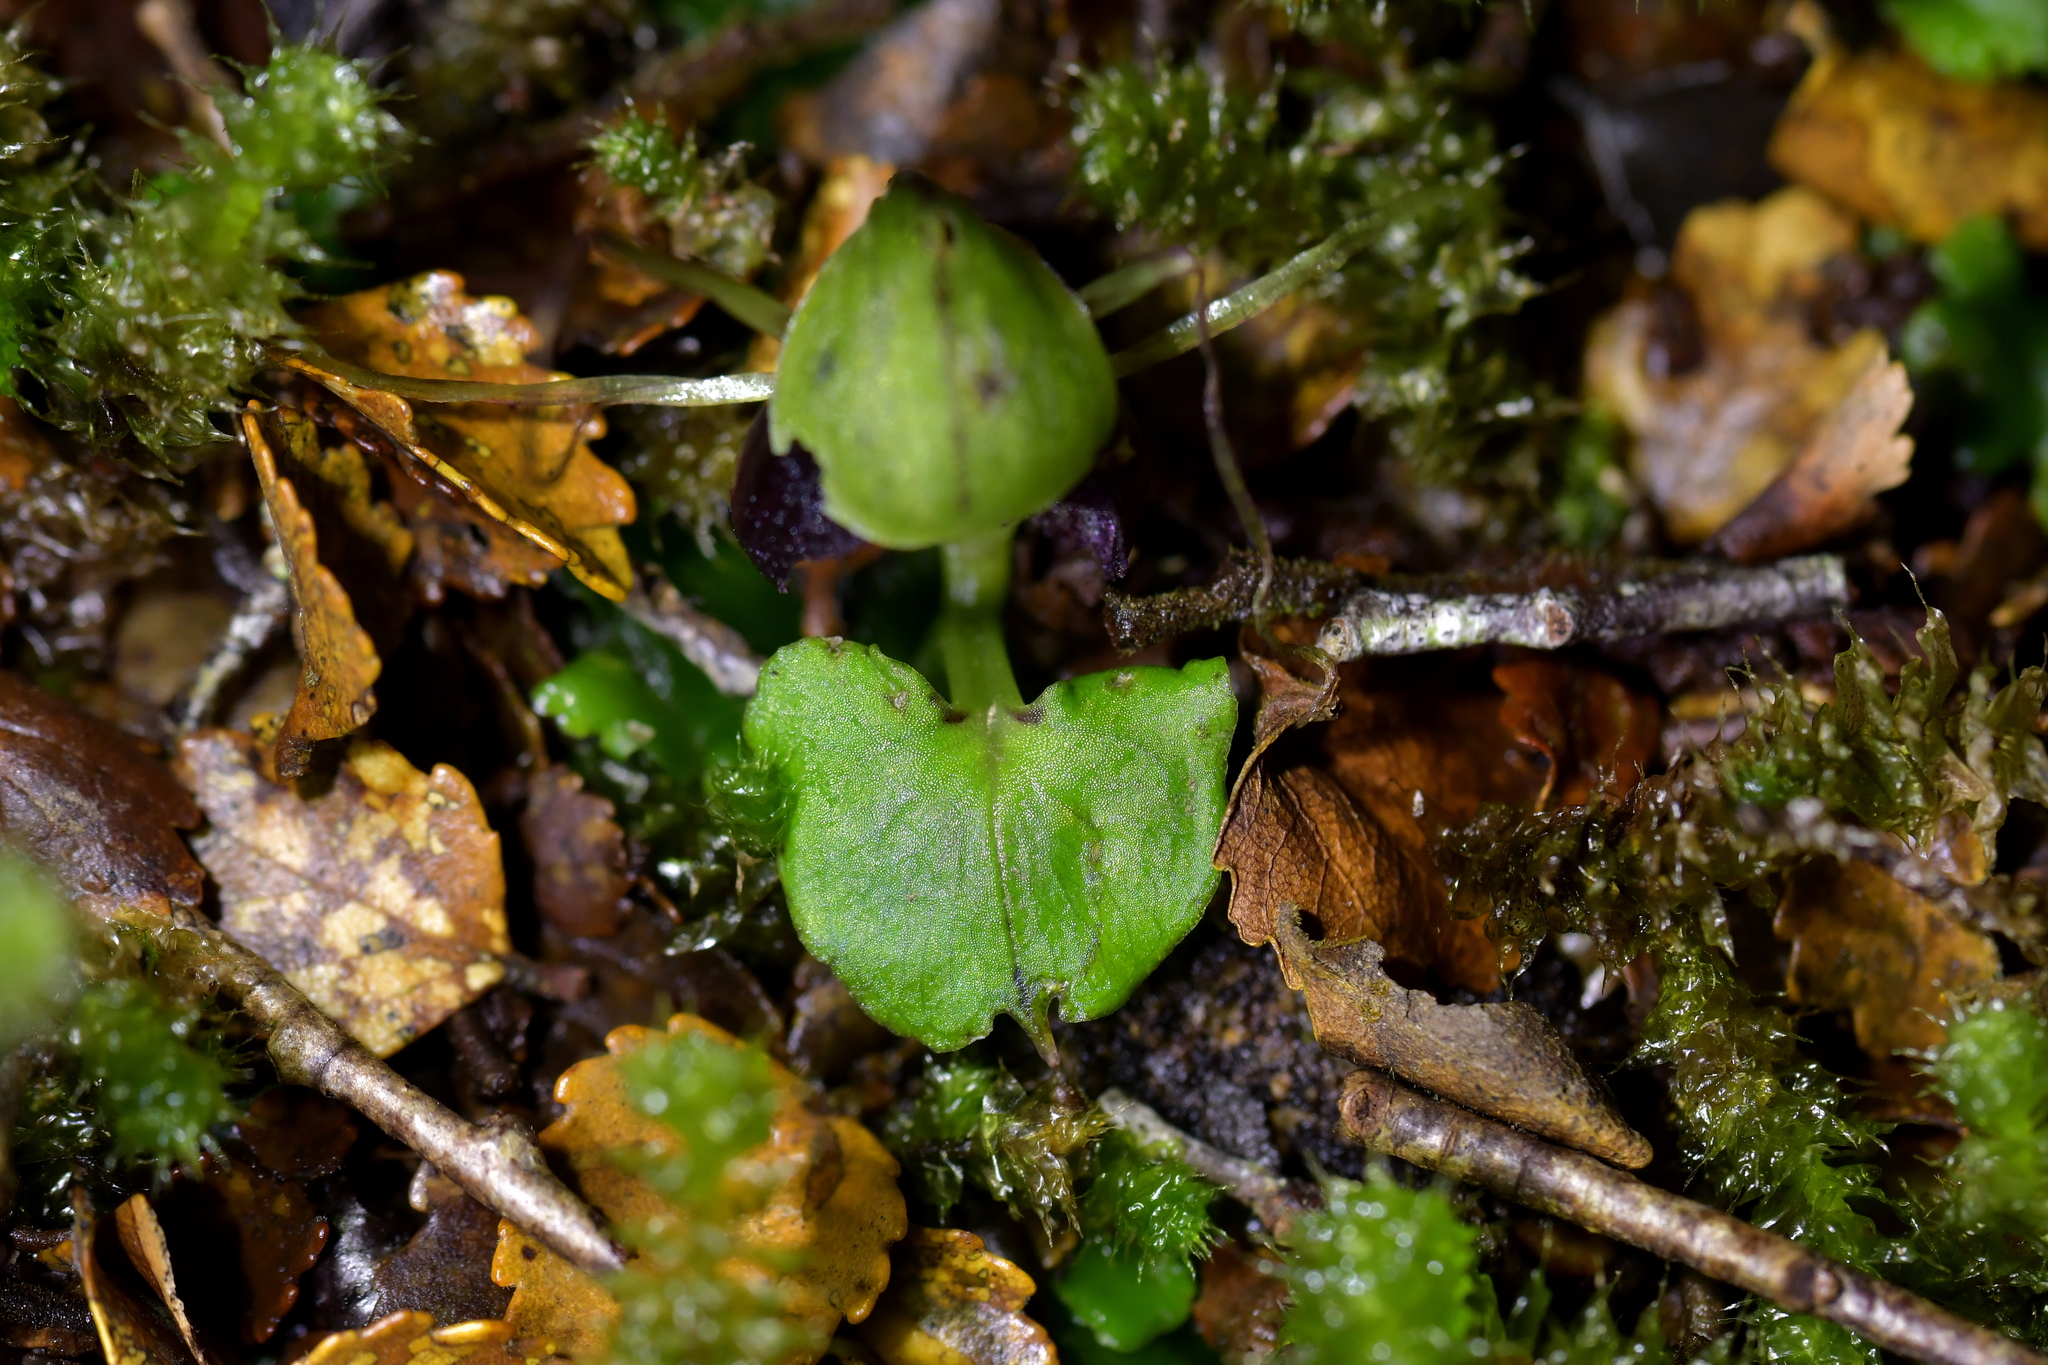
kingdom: Plantae
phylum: Tracheophyta
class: Liliopsida
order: Asparagales
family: Orchidaceae
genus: Corybas
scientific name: Corybas vitreus
